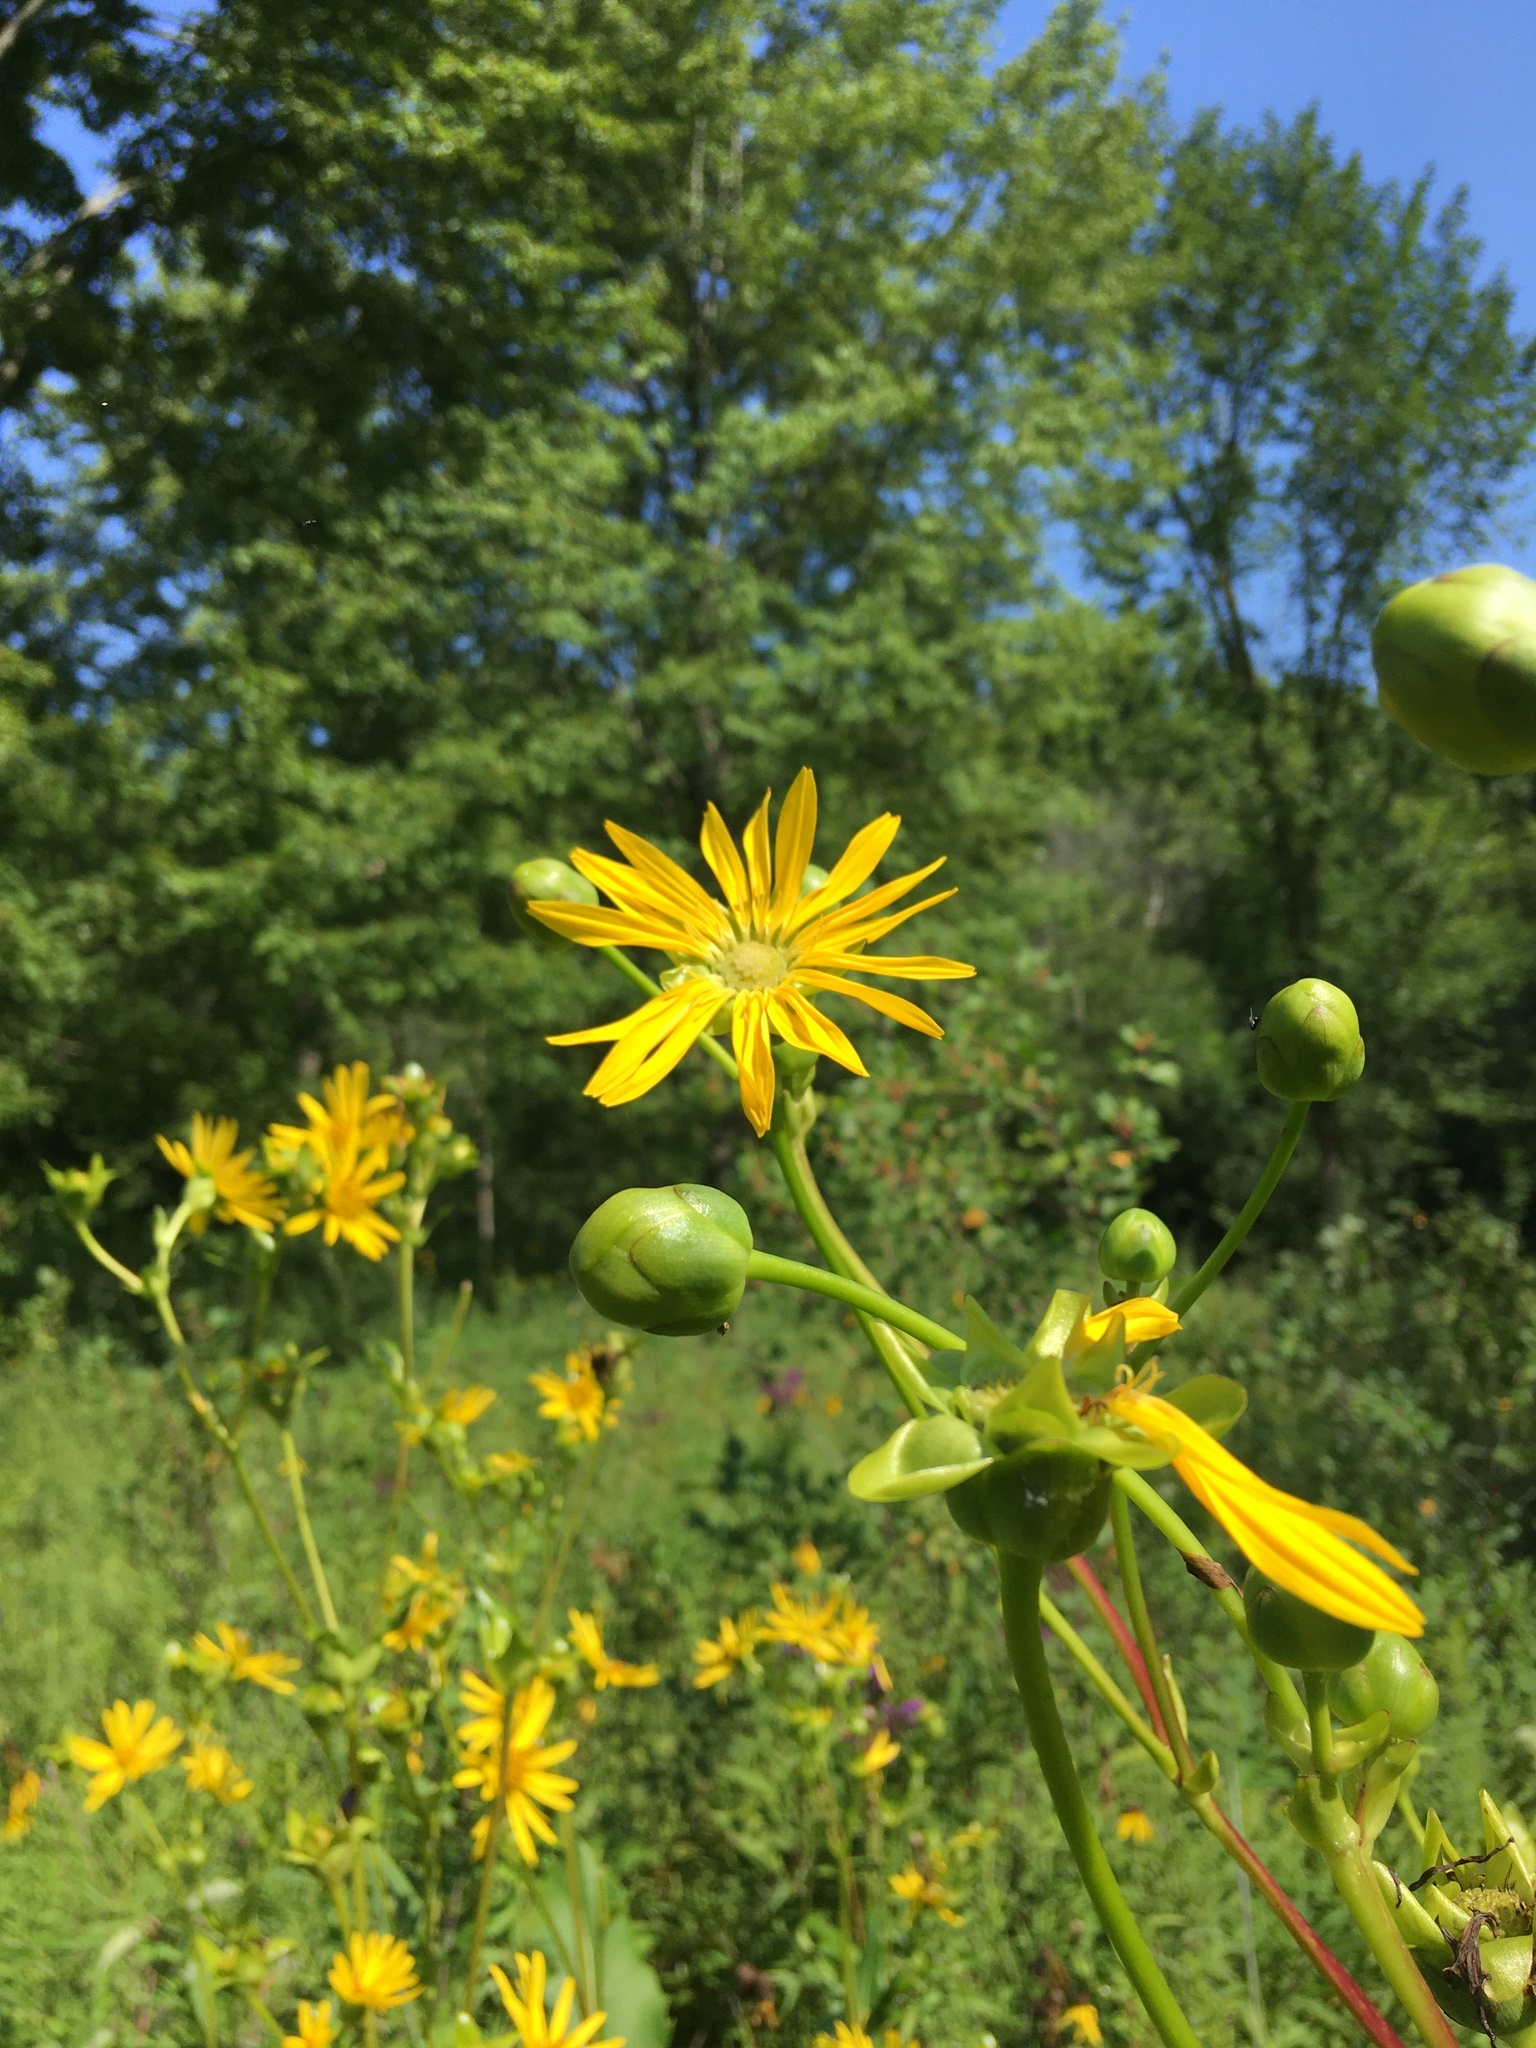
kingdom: Plantae
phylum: Tracheophyta
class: Magnoliopsida
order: Asterales
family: Asteraceae
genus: Silphium
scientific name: Silphium terebinthinaceum
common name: Basal-leaf rosinweed
